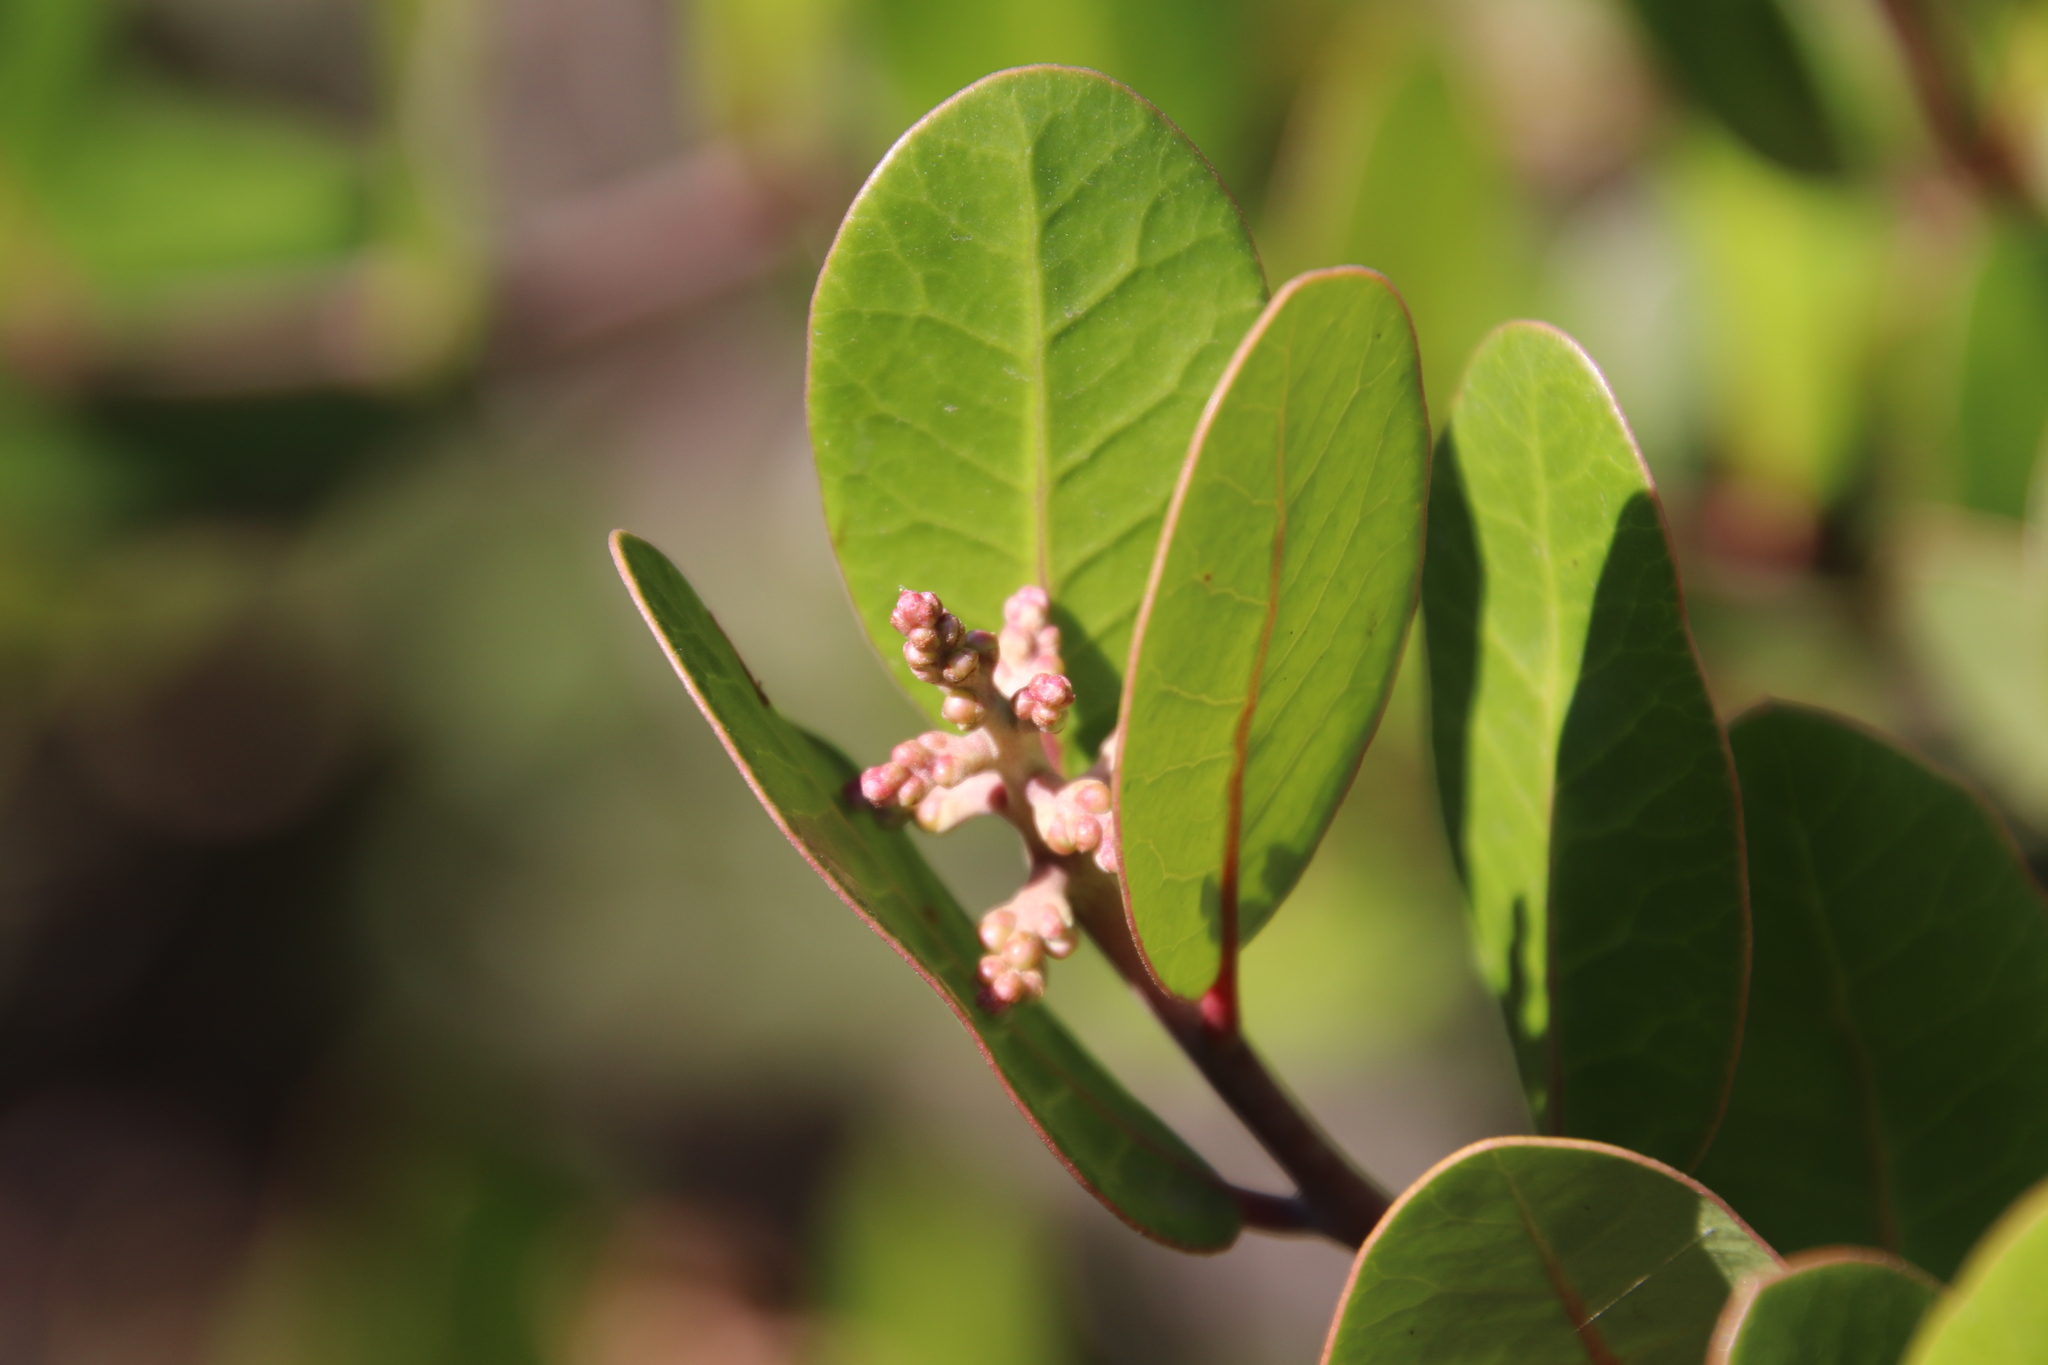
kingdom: Plantae
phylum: Tracheophyta
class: Magnoliopsida
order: Sapindales
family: Anacardiaceae
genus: Rhus
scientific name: Rhus integrifolia
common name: Lemonade sumac
